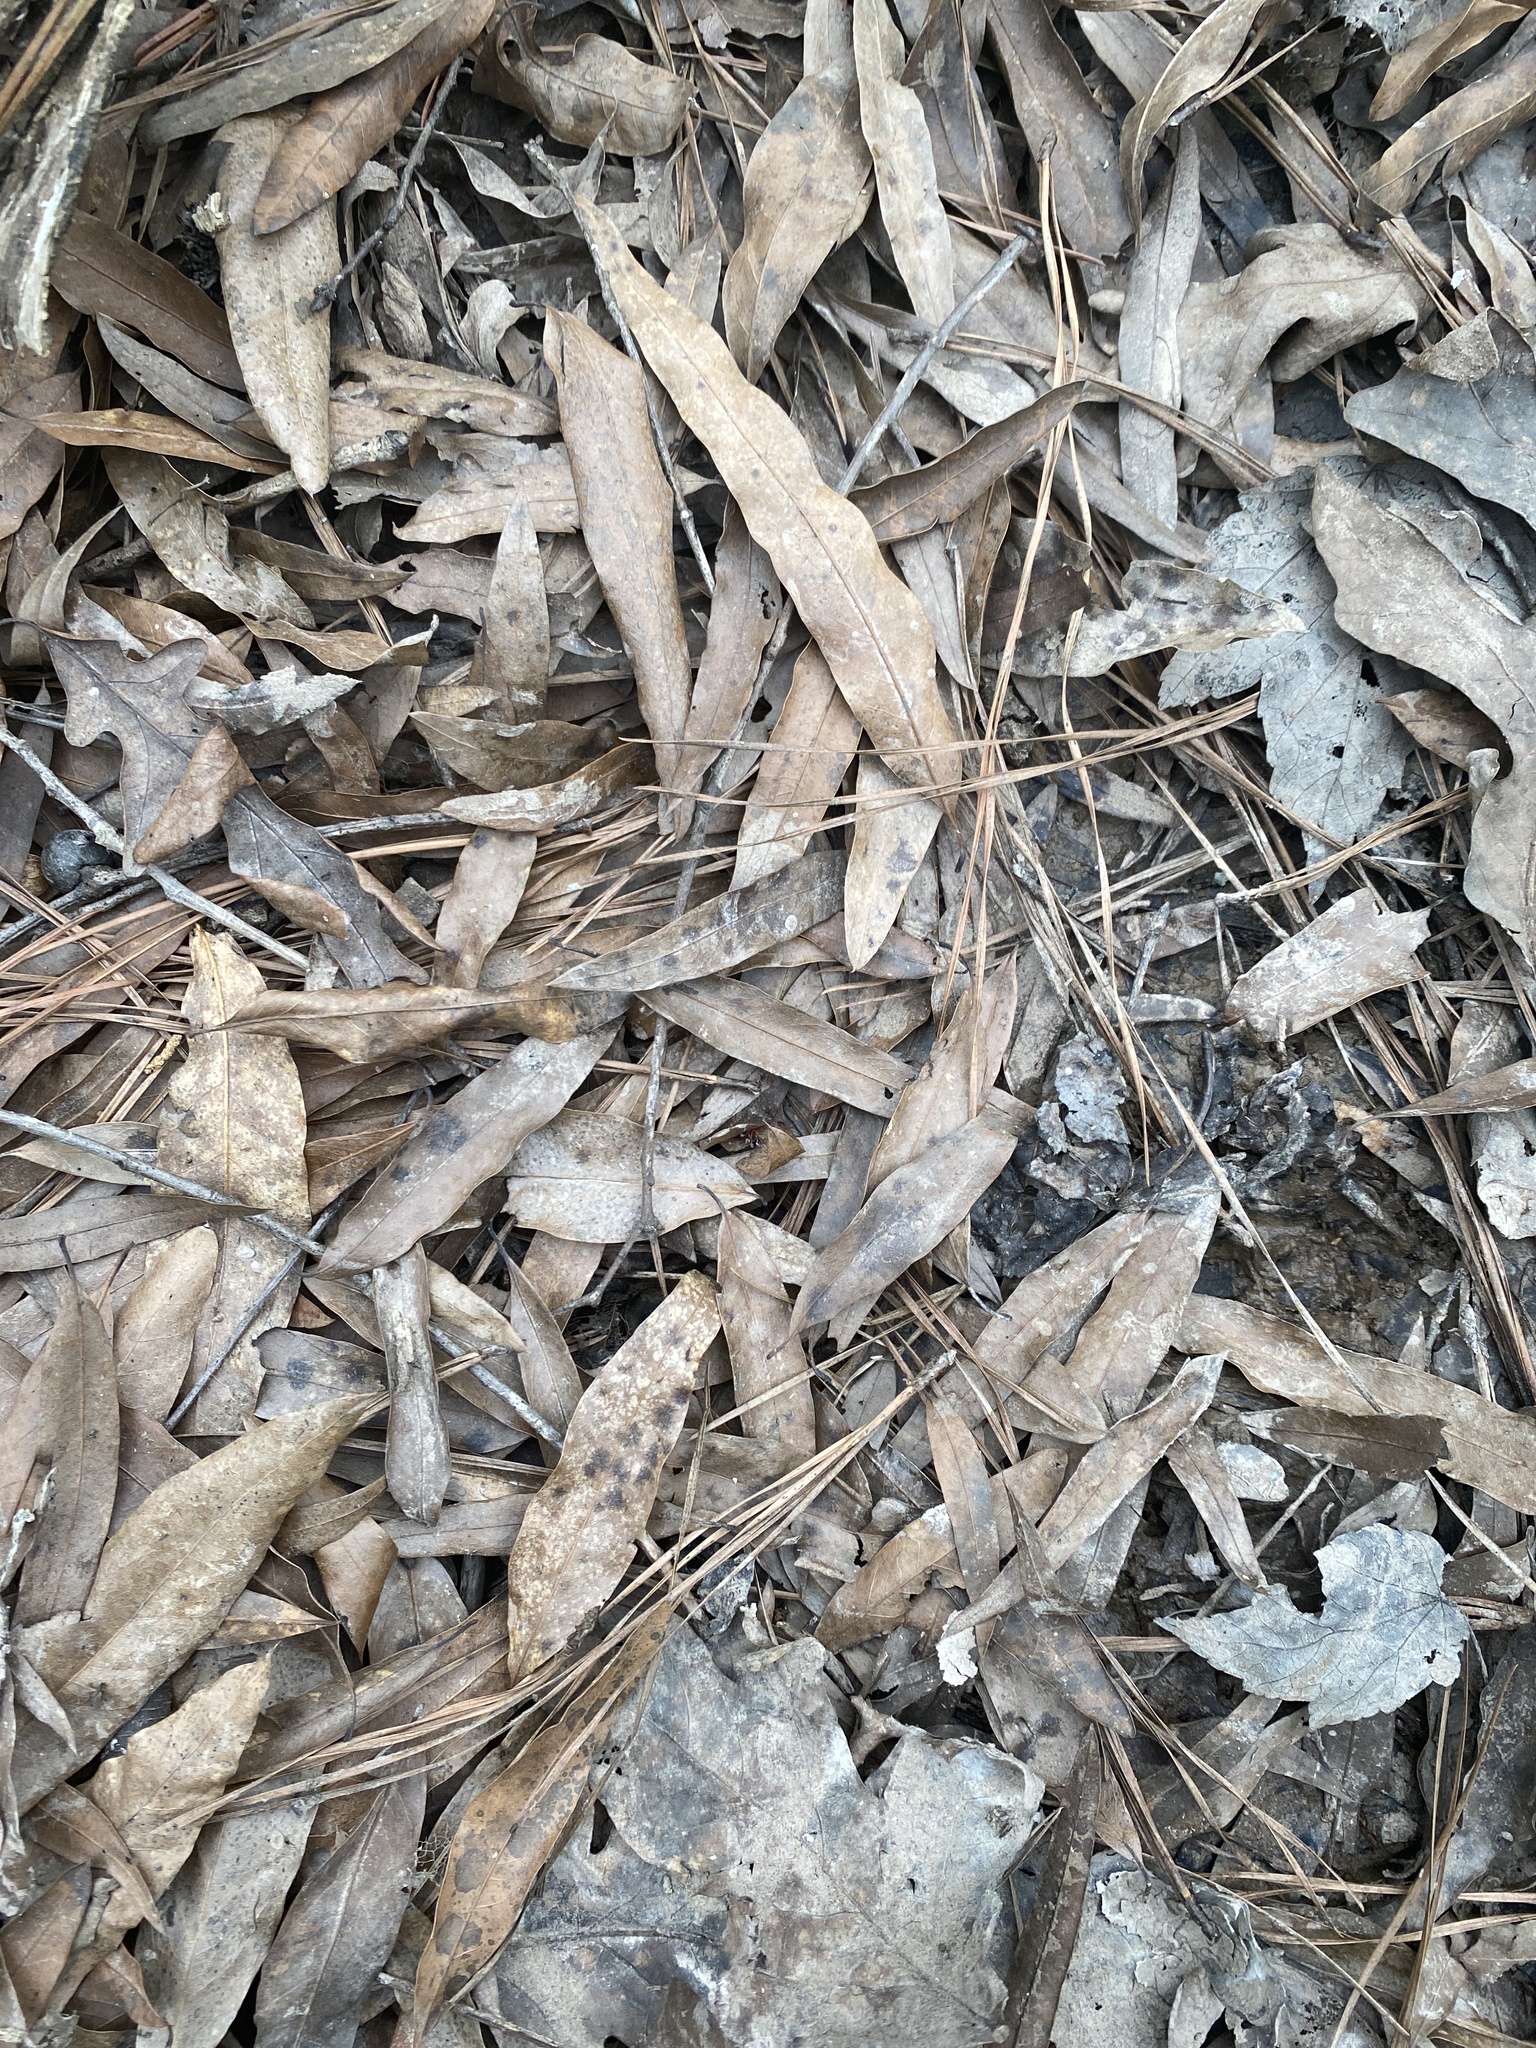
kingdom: Plantae
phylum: Tracheophyta
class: Magnoliopsida
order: Fagales
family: Fagaceae
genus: Quercus
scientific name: Quercus phellos
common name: Willow oak
